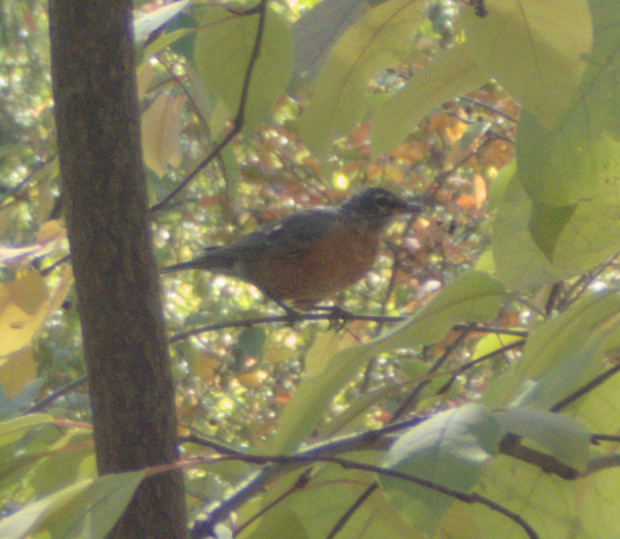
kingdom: Animalia
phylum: Chordata
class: Aves
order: Passeriformes
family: Turdidae
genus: Turdus
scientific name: Turdus migratorius
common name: American robin
